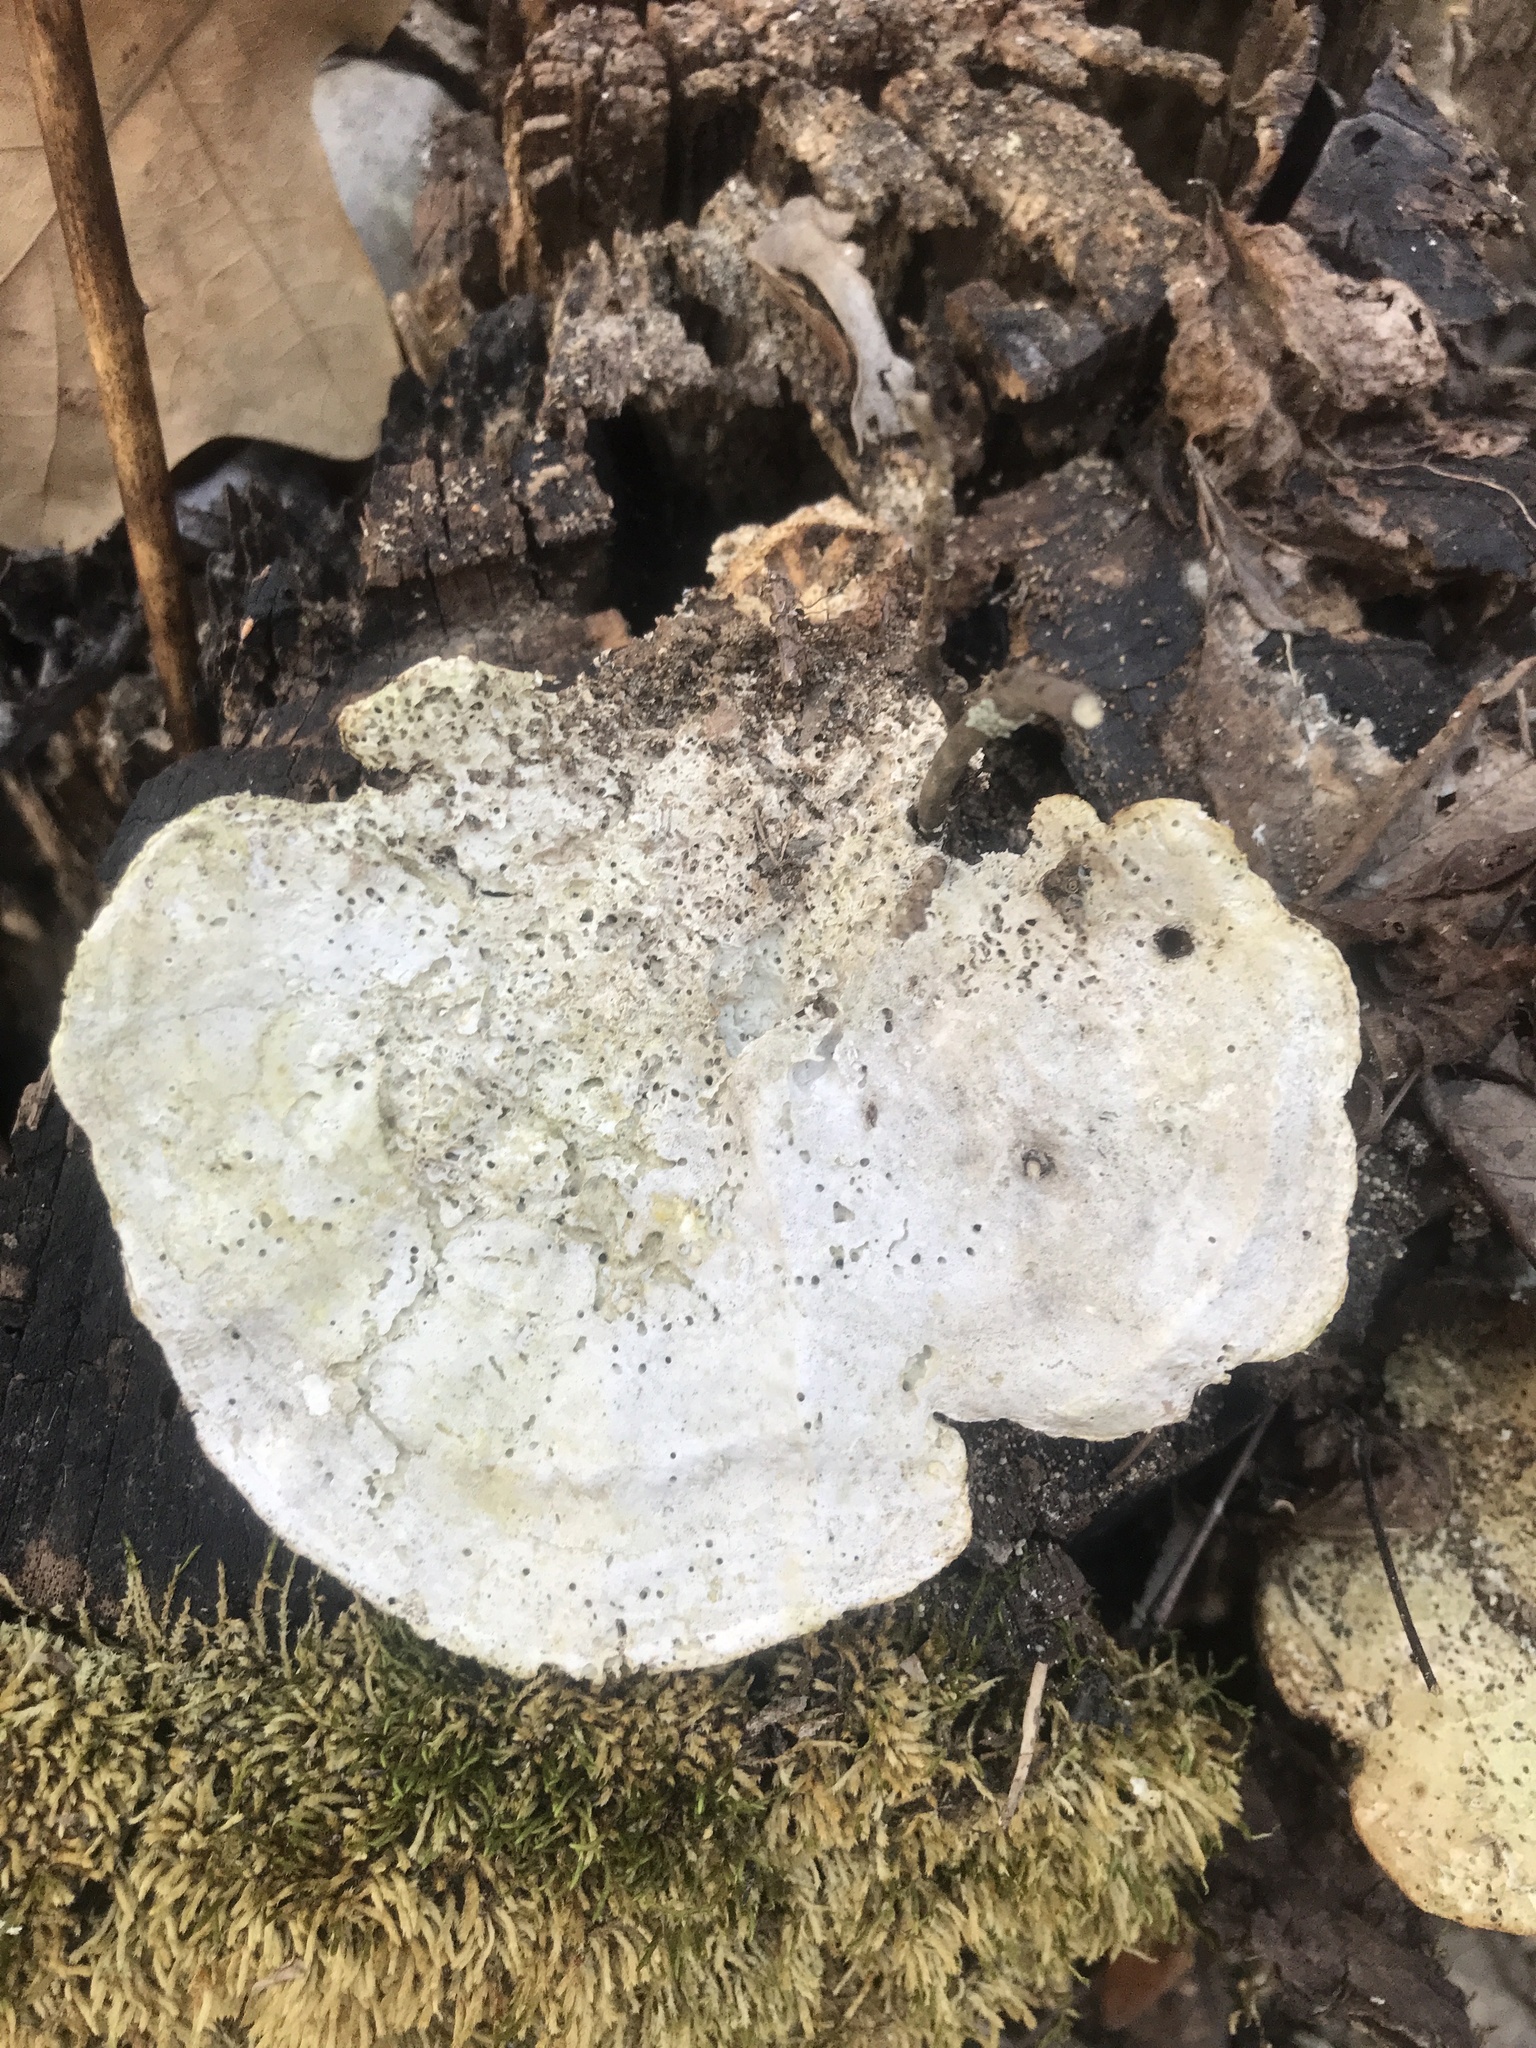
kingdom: Fungi
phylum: Basidiomycota
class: Agaricomycetes
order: Polyporales
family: Polyporaceae
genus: Trametes
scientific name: Trametes
